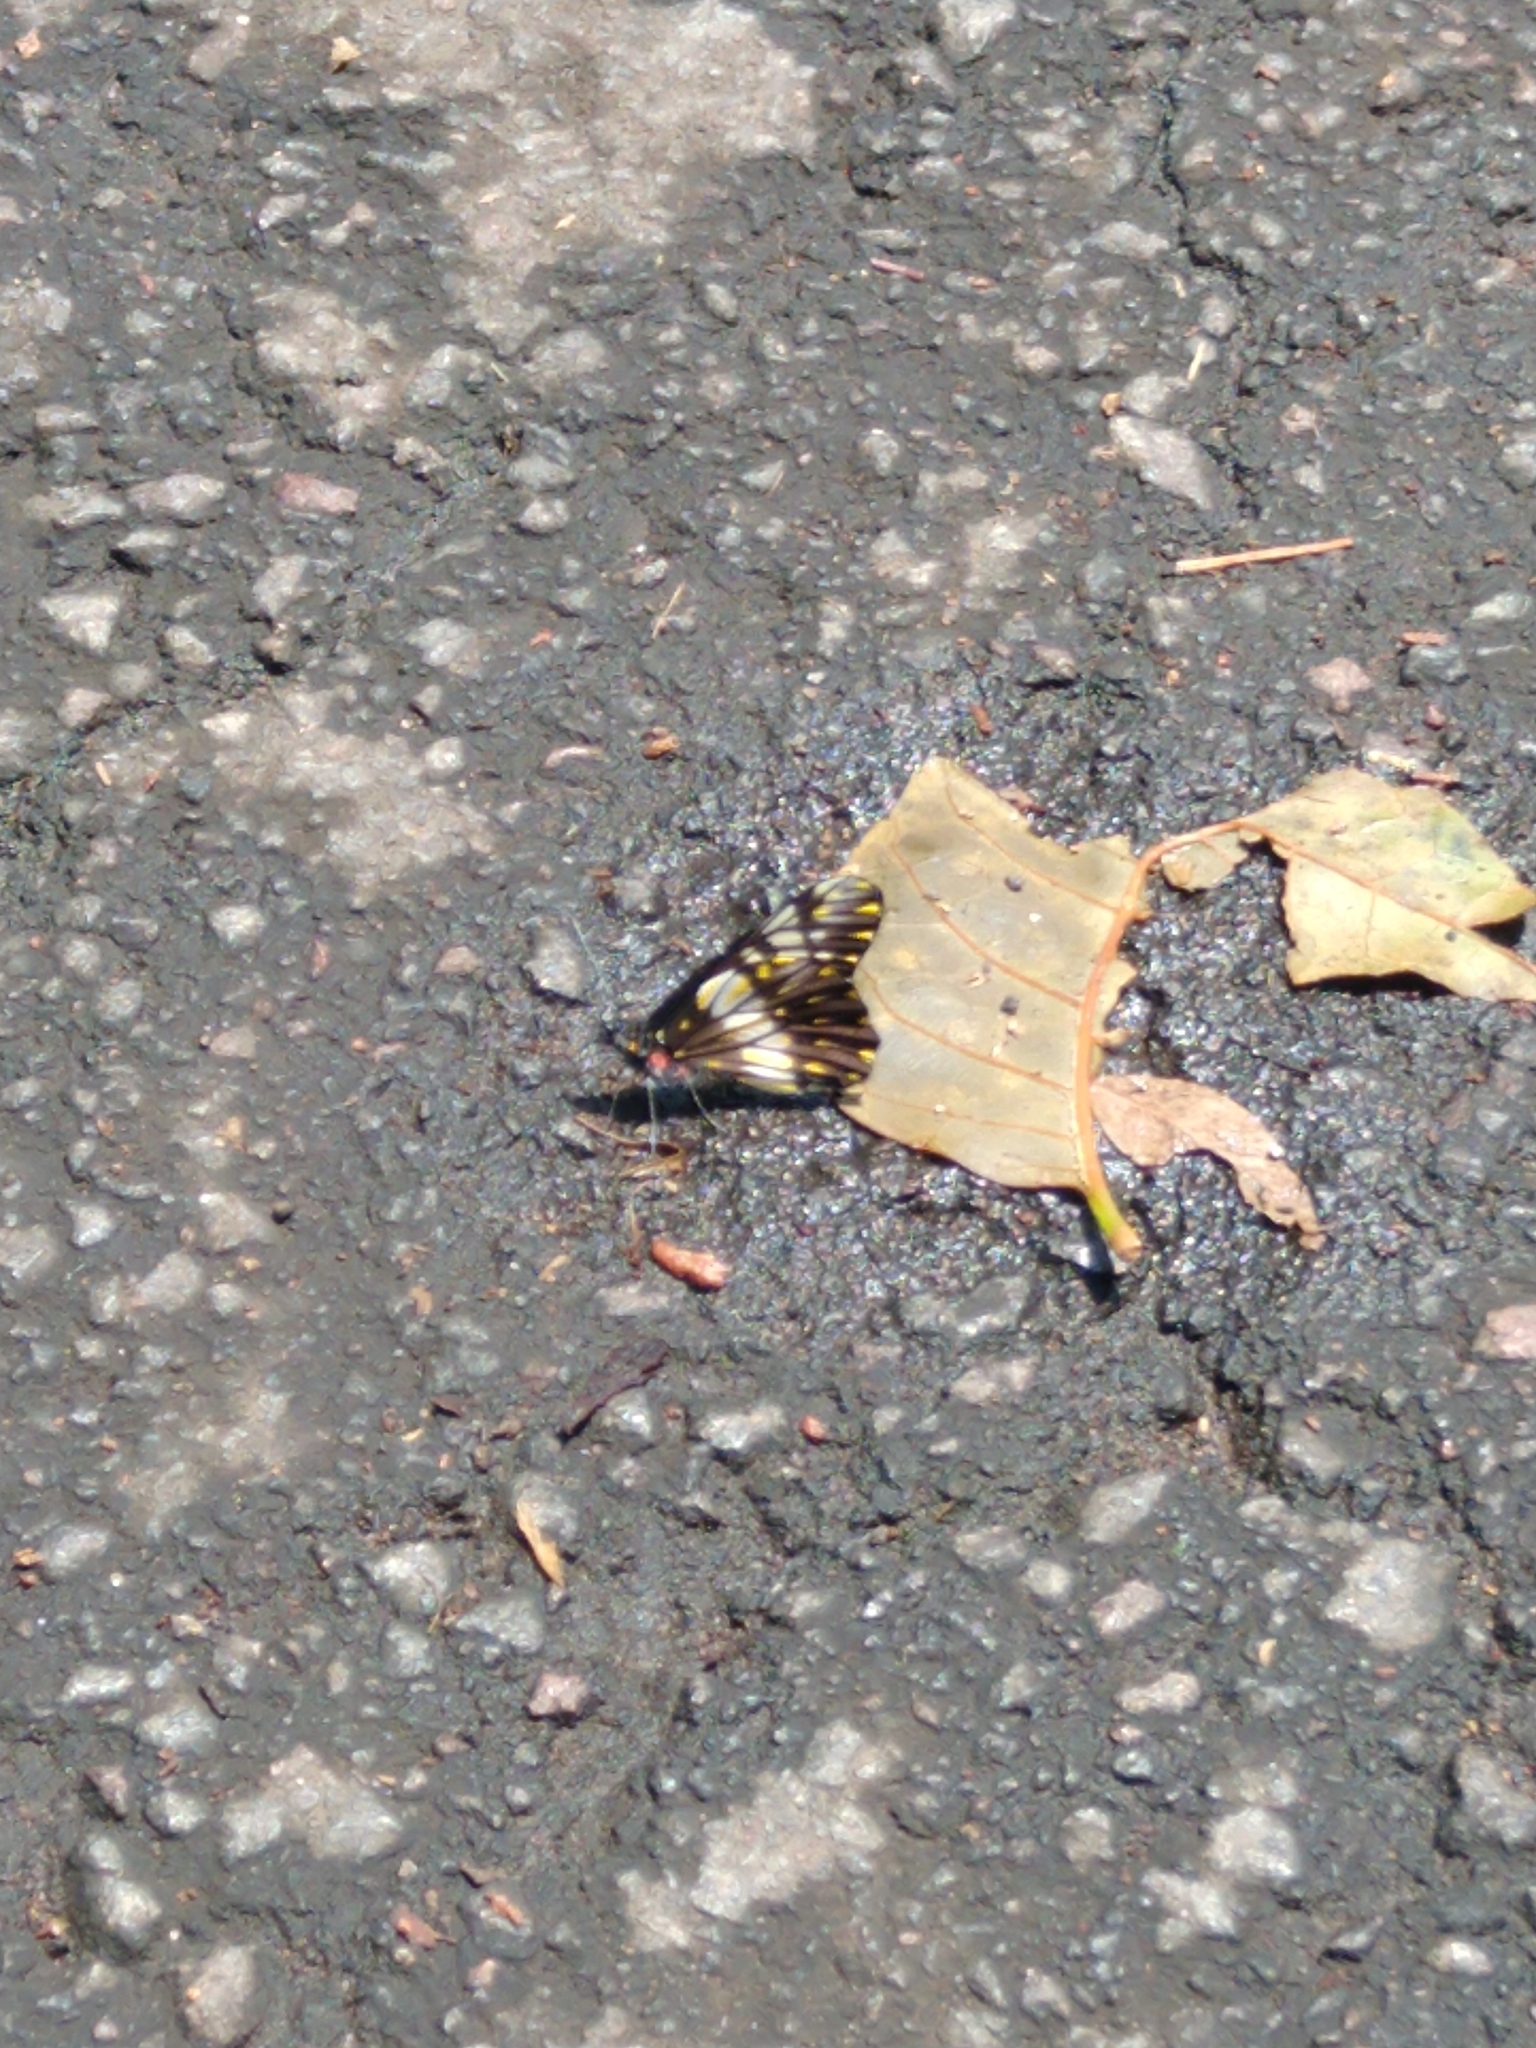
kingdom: Animalia
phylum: Arthropoda
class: Insecta
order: Lepidoptera
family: Pieridae
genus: Archonias
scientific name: Archonias nimbice
